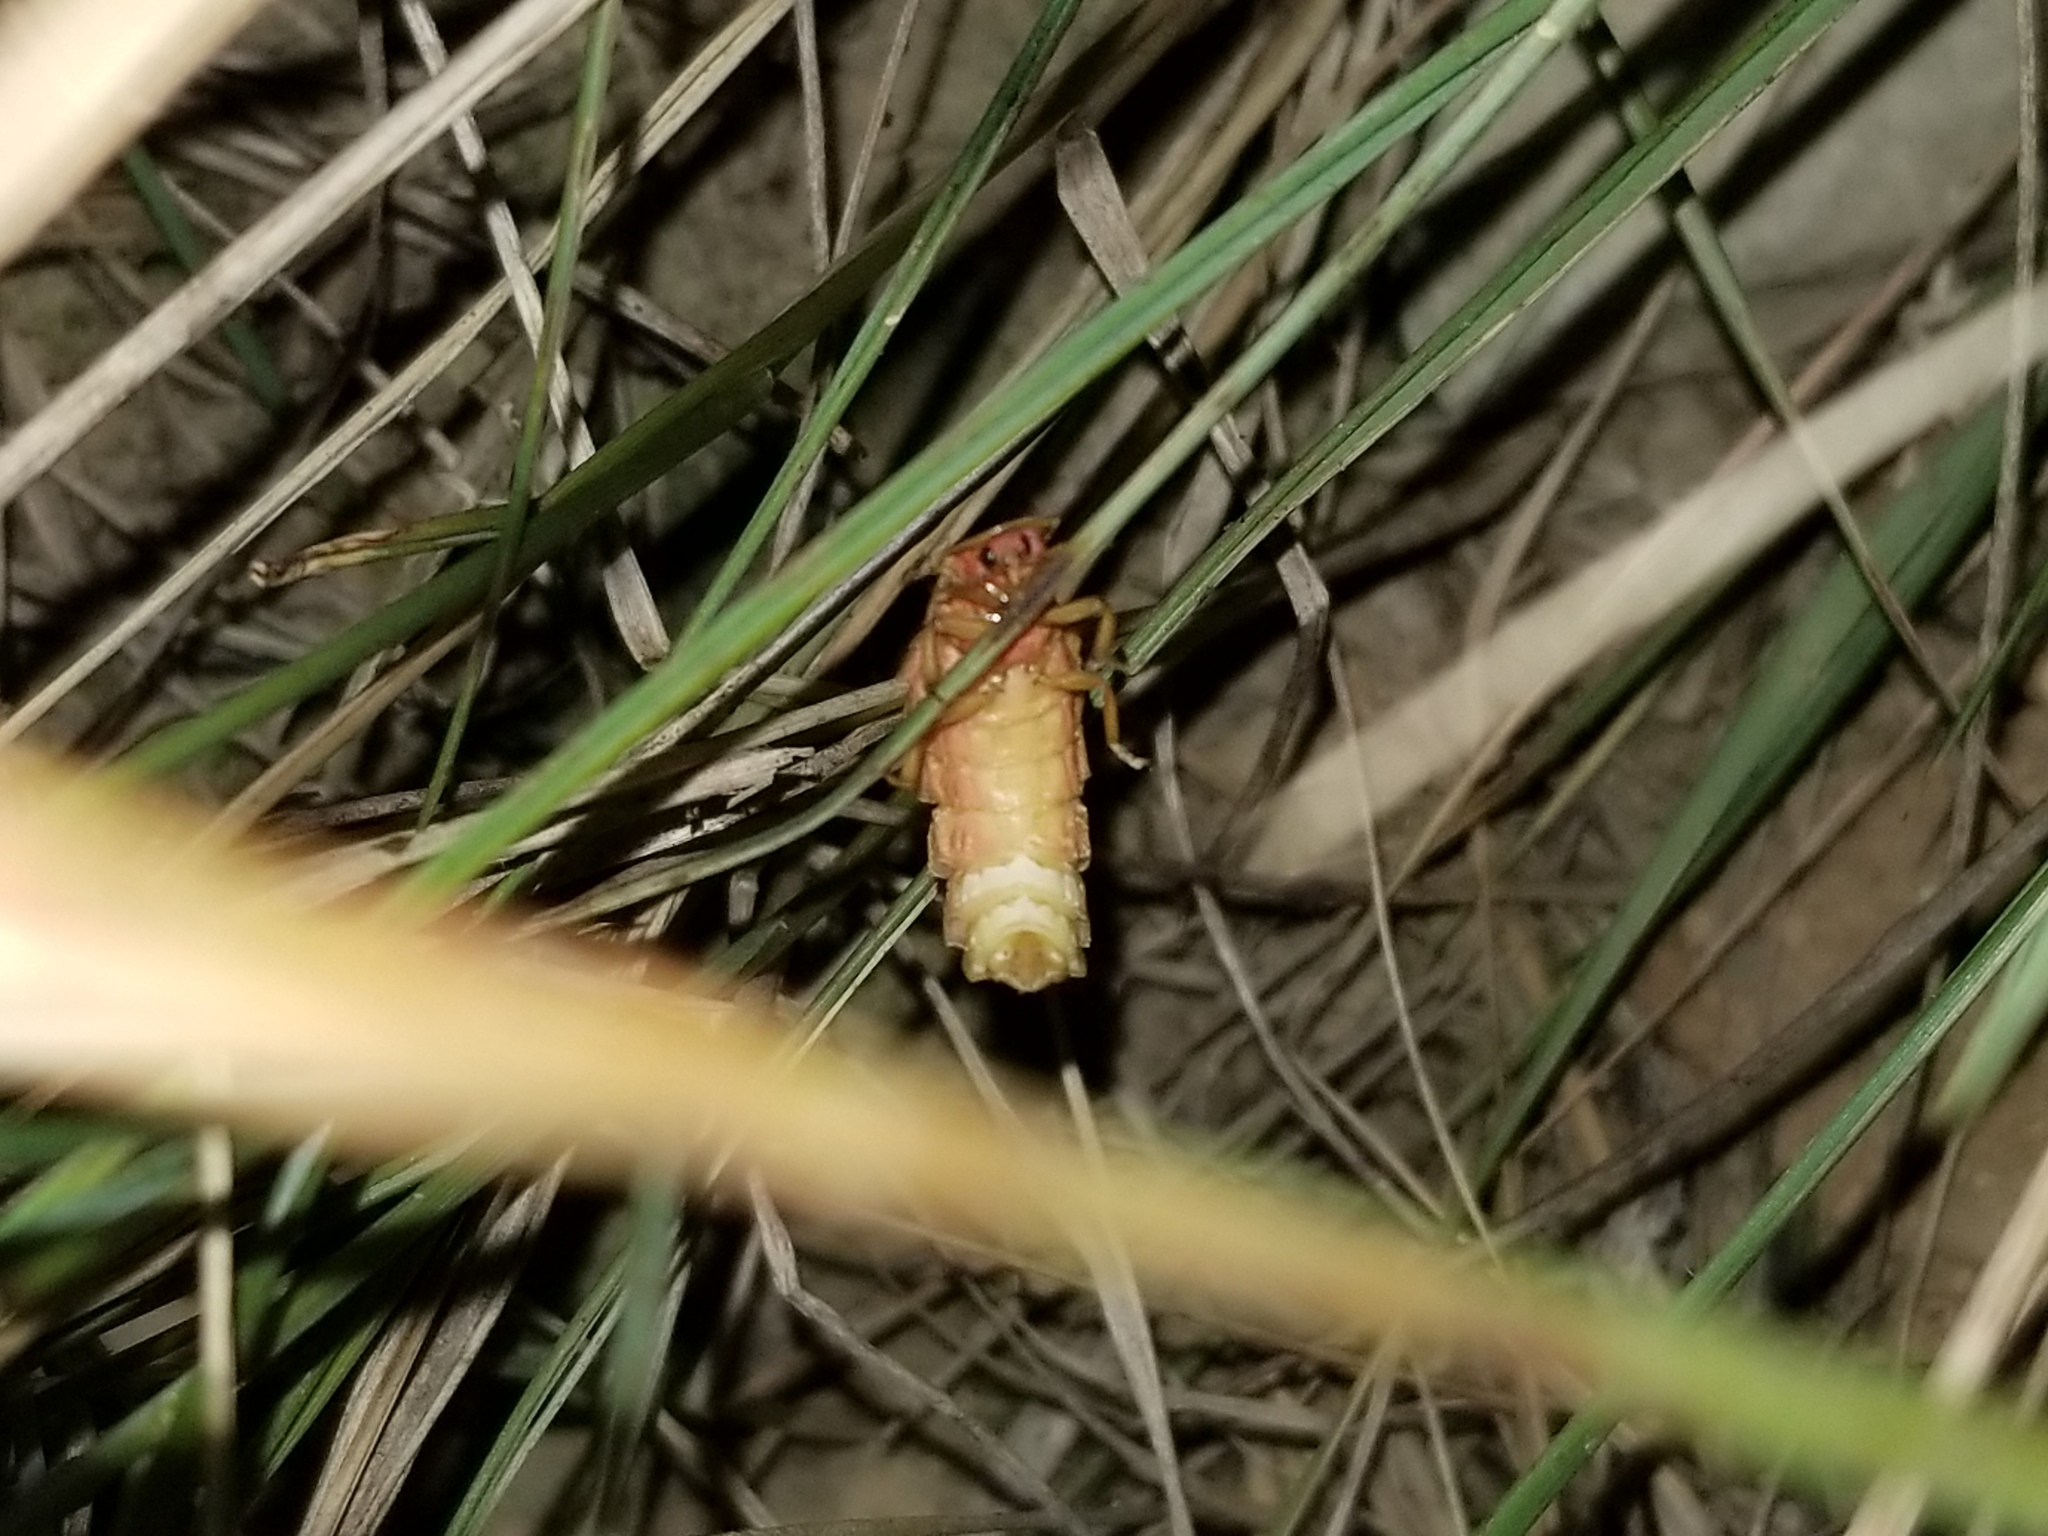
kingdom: Animalia
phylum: Arthropoda
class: Insecta
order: Coleoptera
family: Lampyridae
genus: Nyctophila
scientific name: Nyctophila reichii
